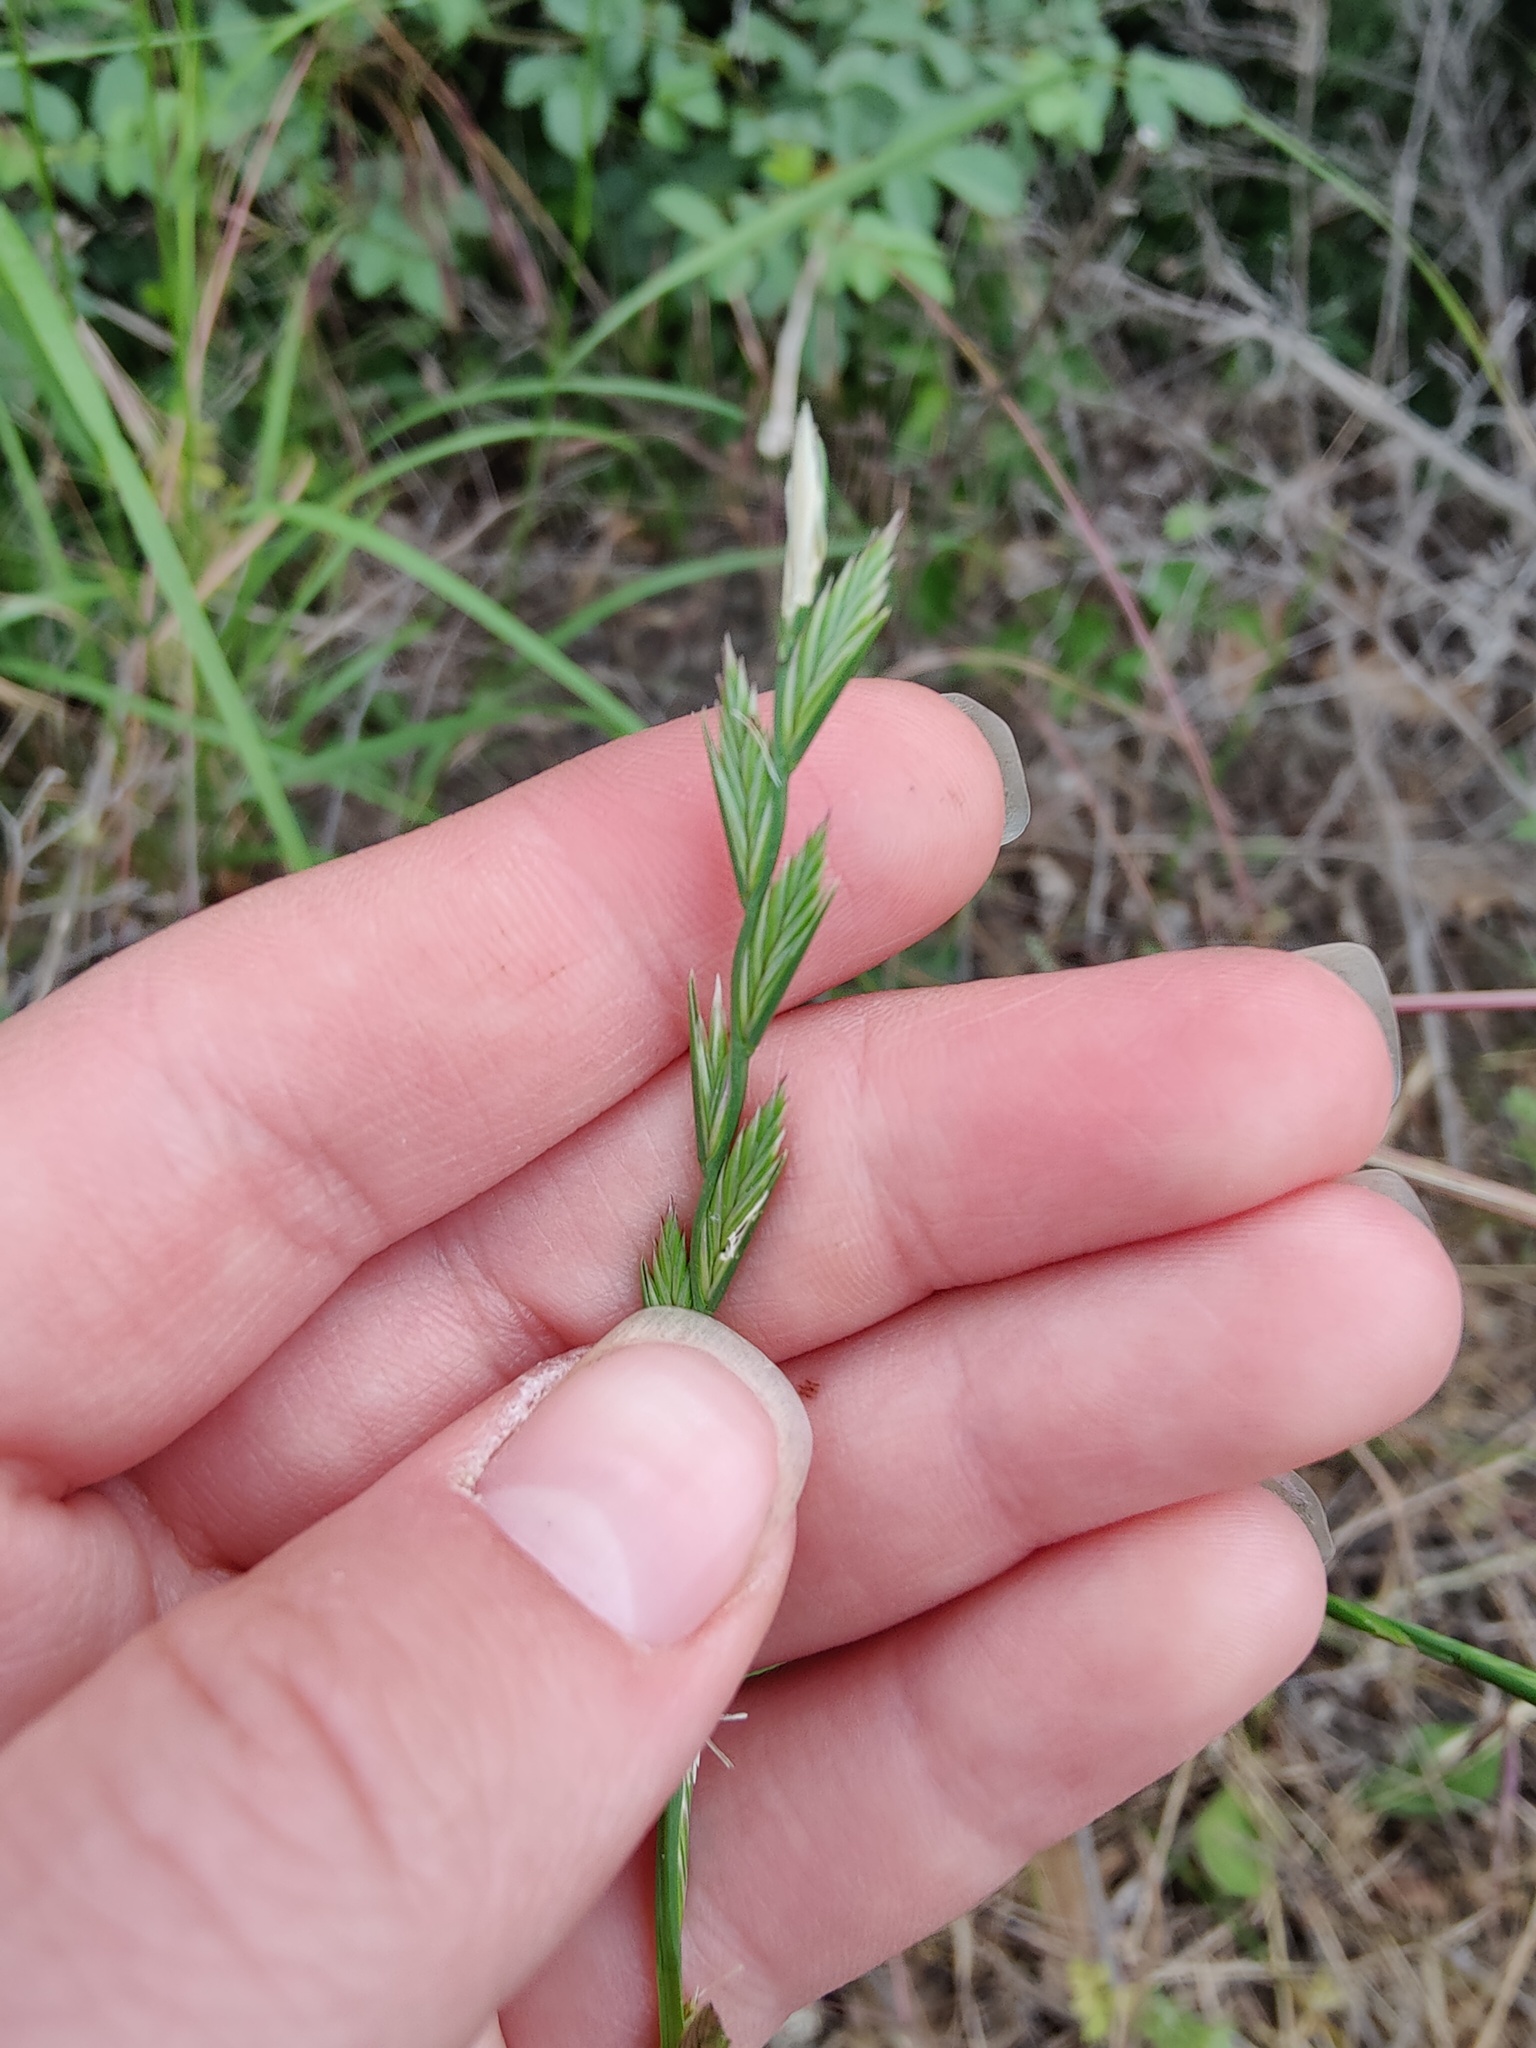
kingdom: Plantae
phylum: Tracheophyta
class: Liliopsida
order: Poales
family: Poaceae
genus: Lolium
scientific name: Lolium perenne
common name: Perennial ryegrass
